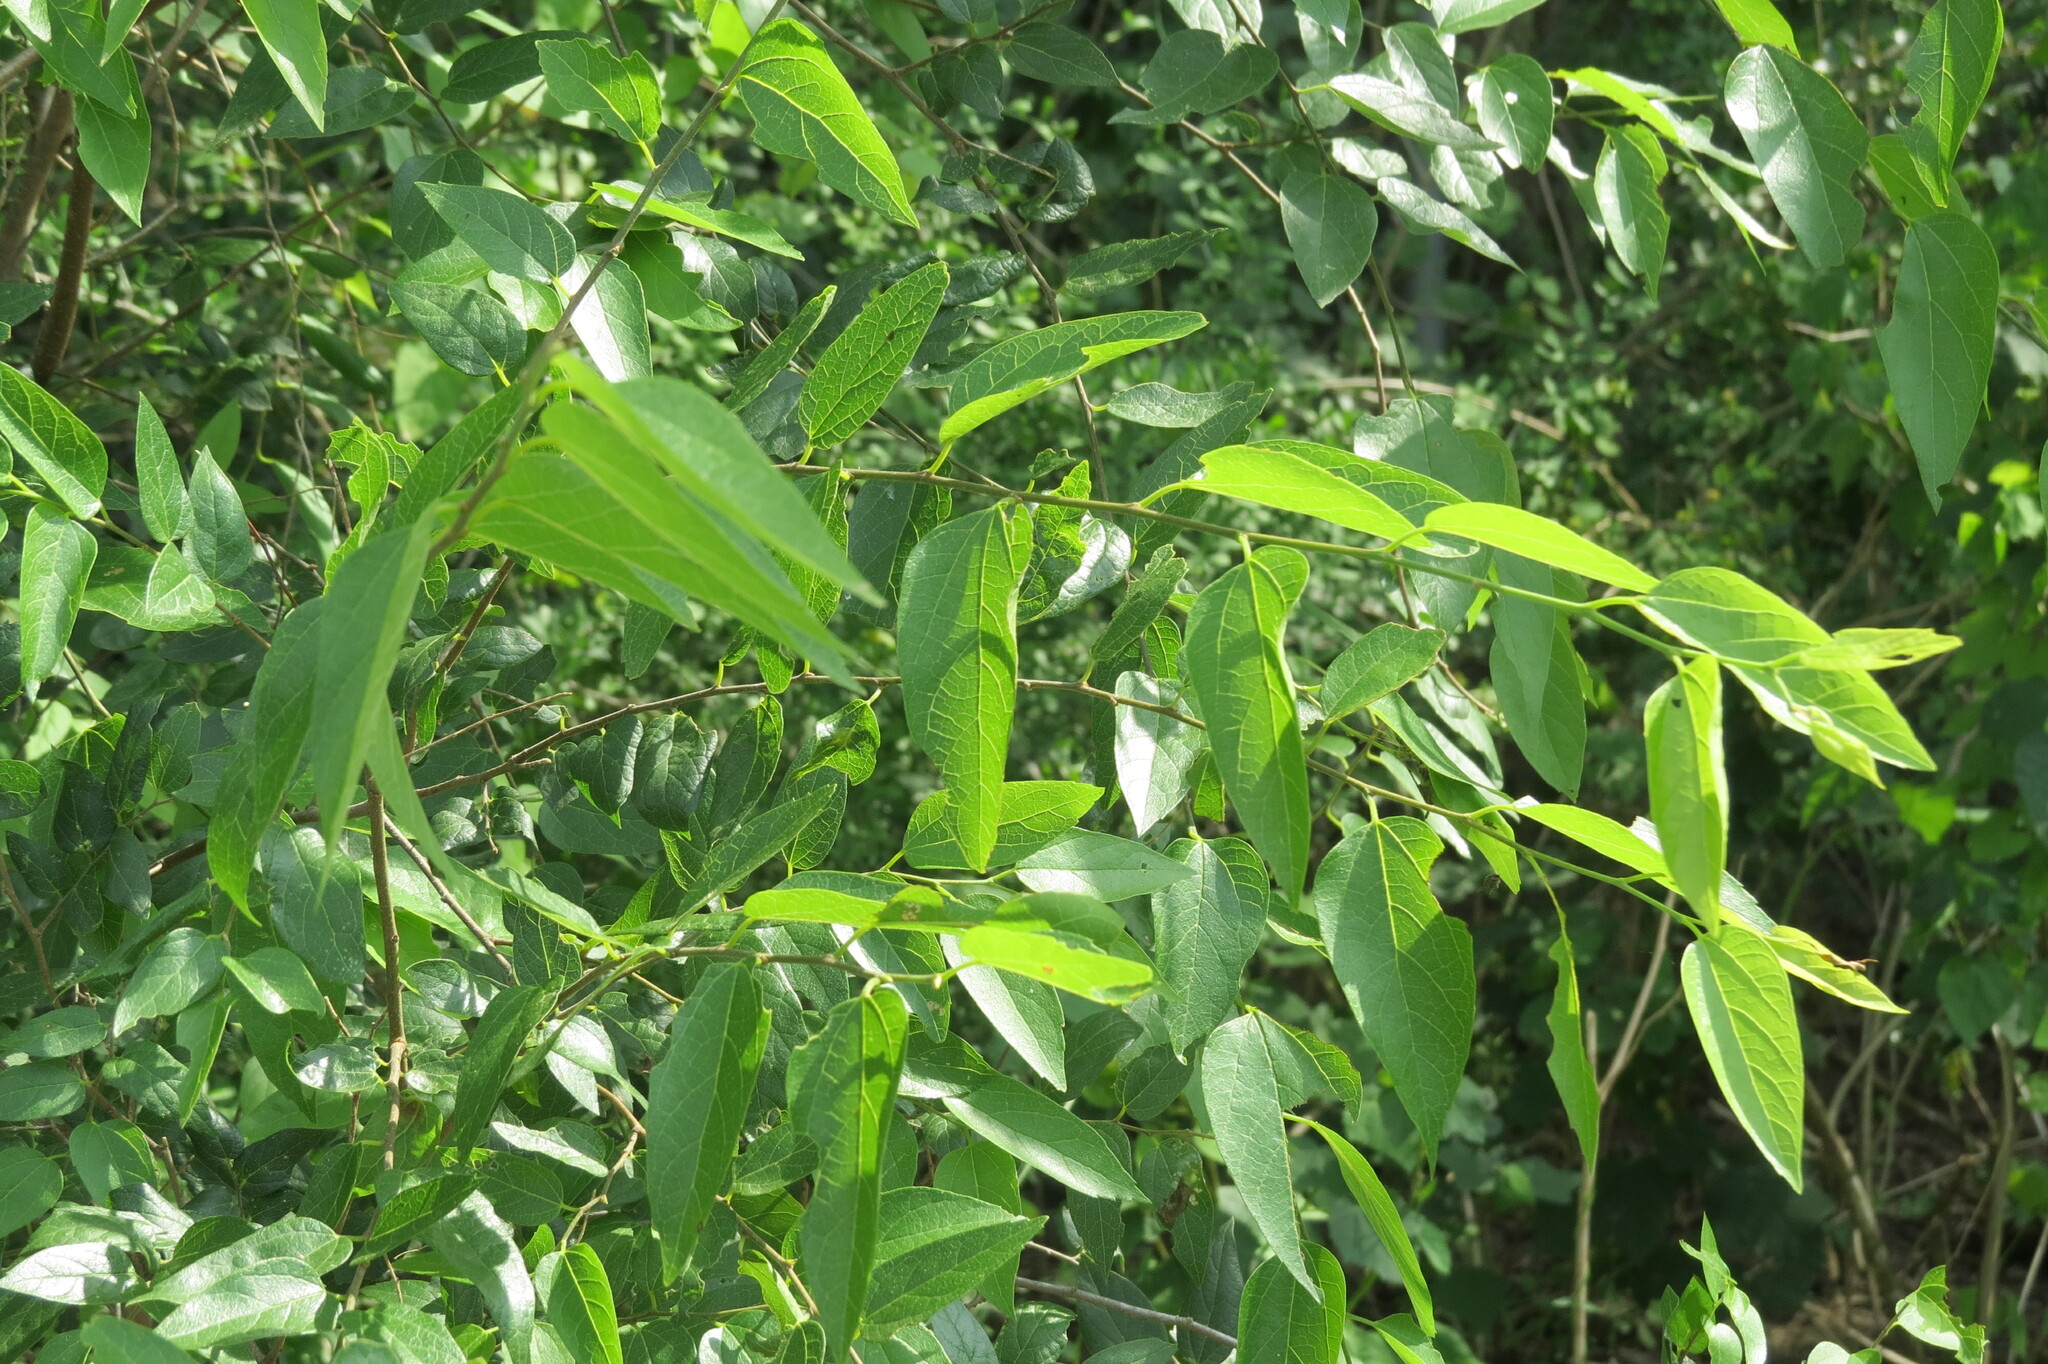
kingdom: Plantae
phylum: Tracheophyta
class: Magnoliopsida
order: Rosales
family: Cannabaceae
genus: Celtis
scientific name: Celtis laevigata
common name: Sugarberry
